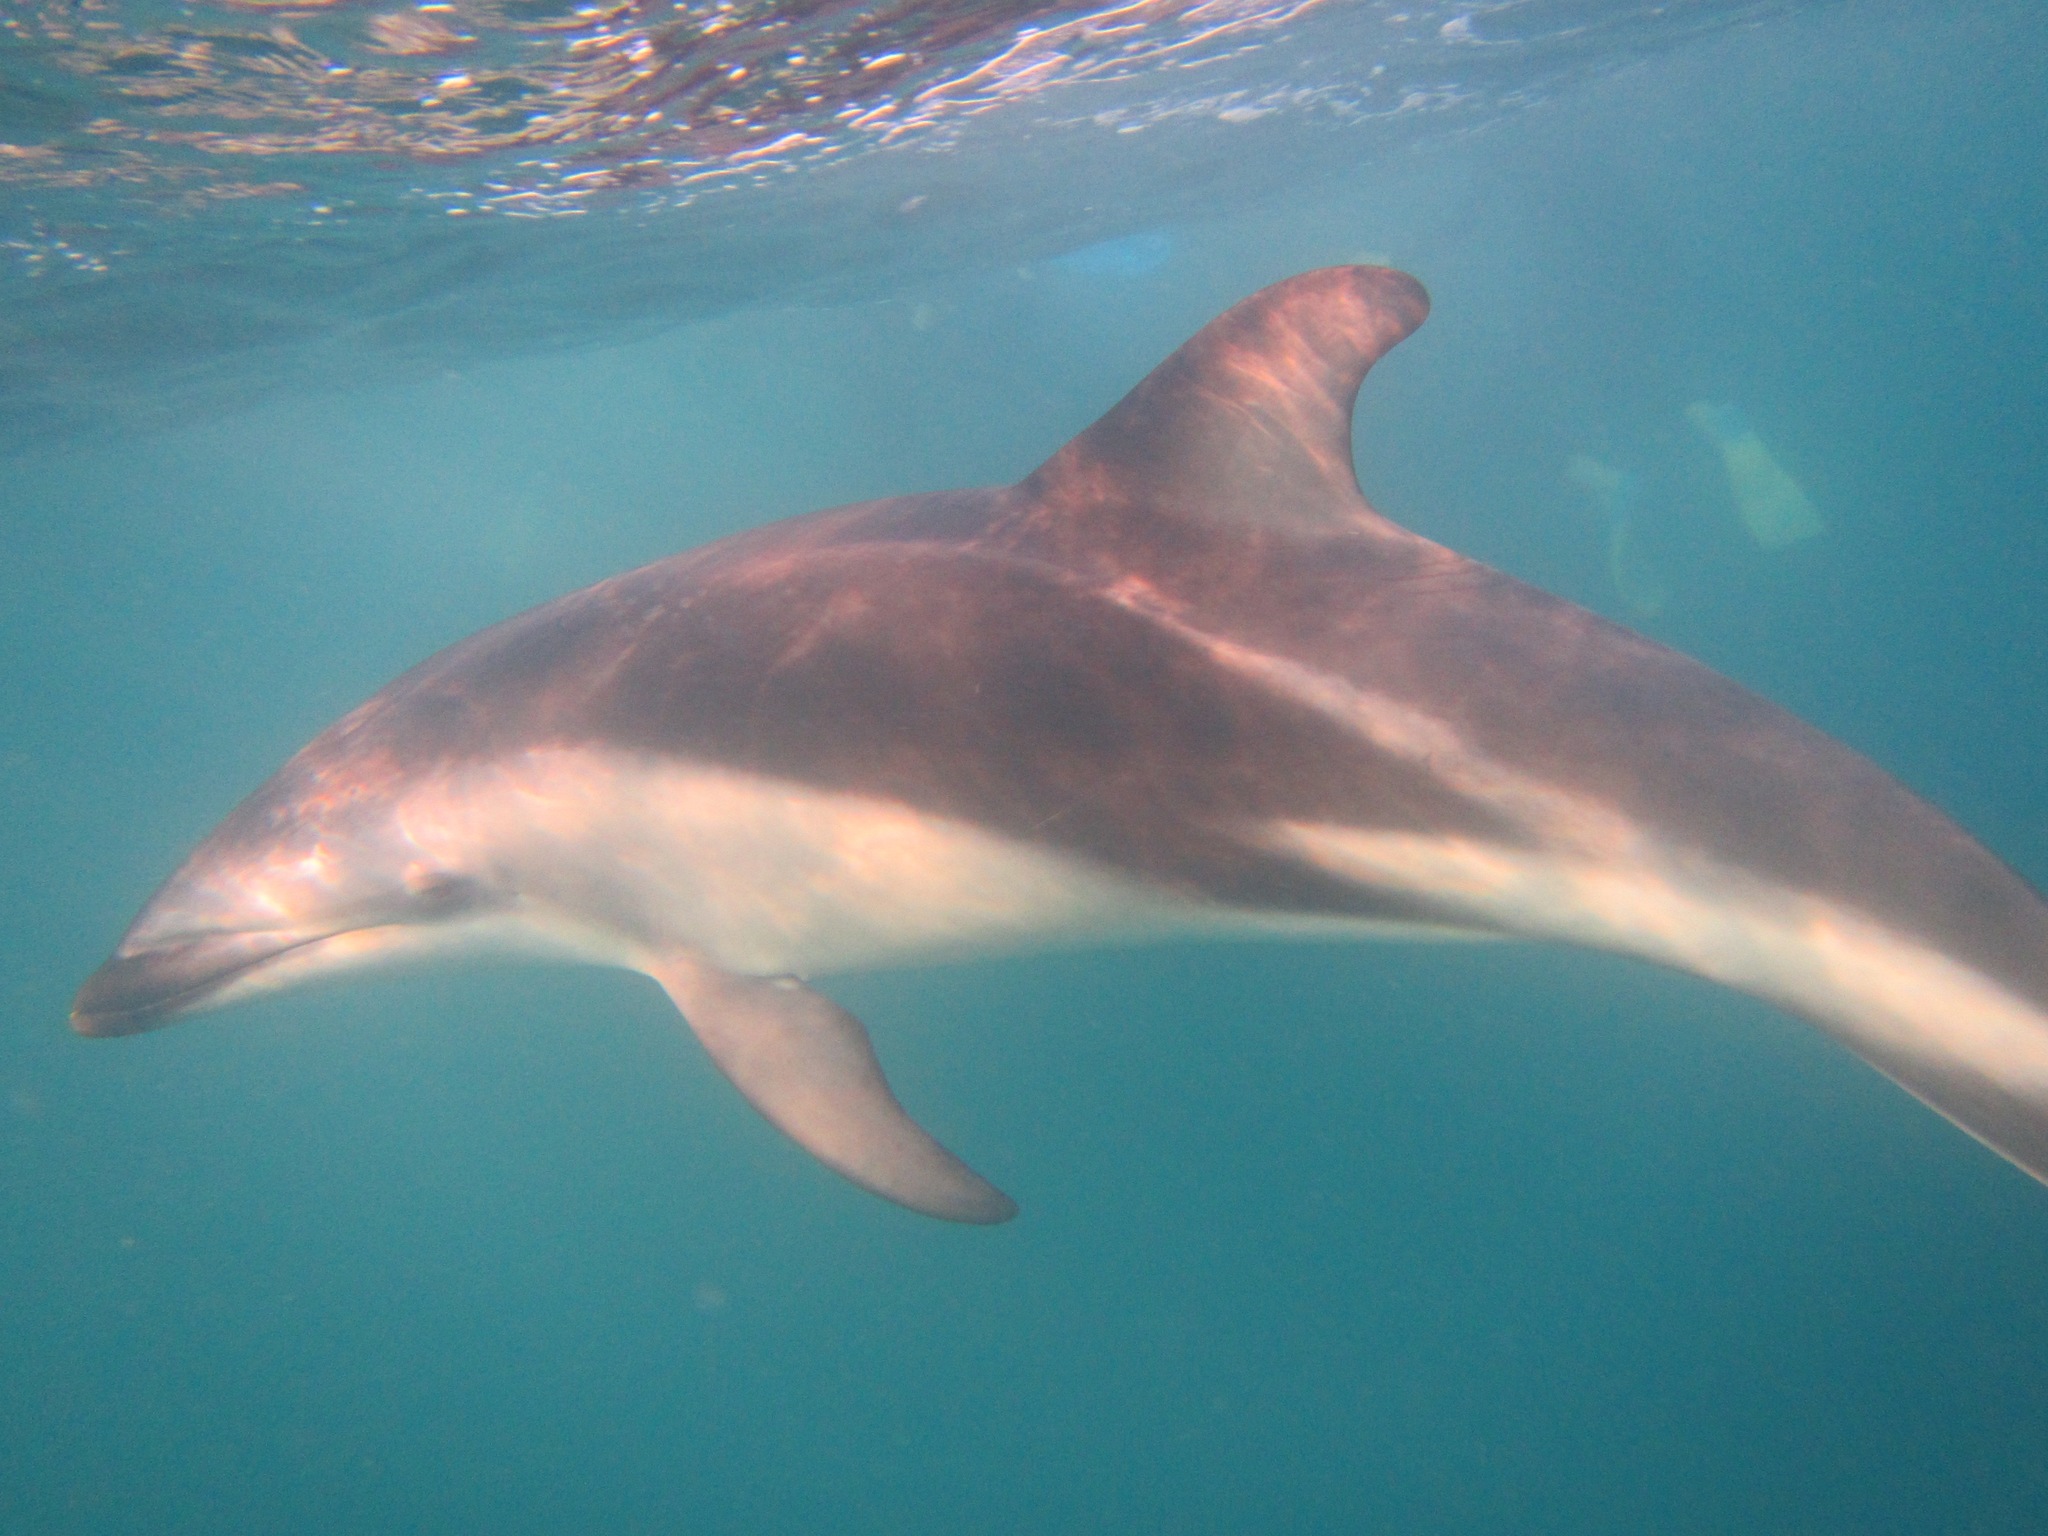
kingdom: Animalia
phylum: Chordata
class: Mammalia
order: Cetacea
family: Delphinidae
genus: Lagenorhynchus
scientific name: Lagenorhynchus obscurus
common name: Dusky dolphin
